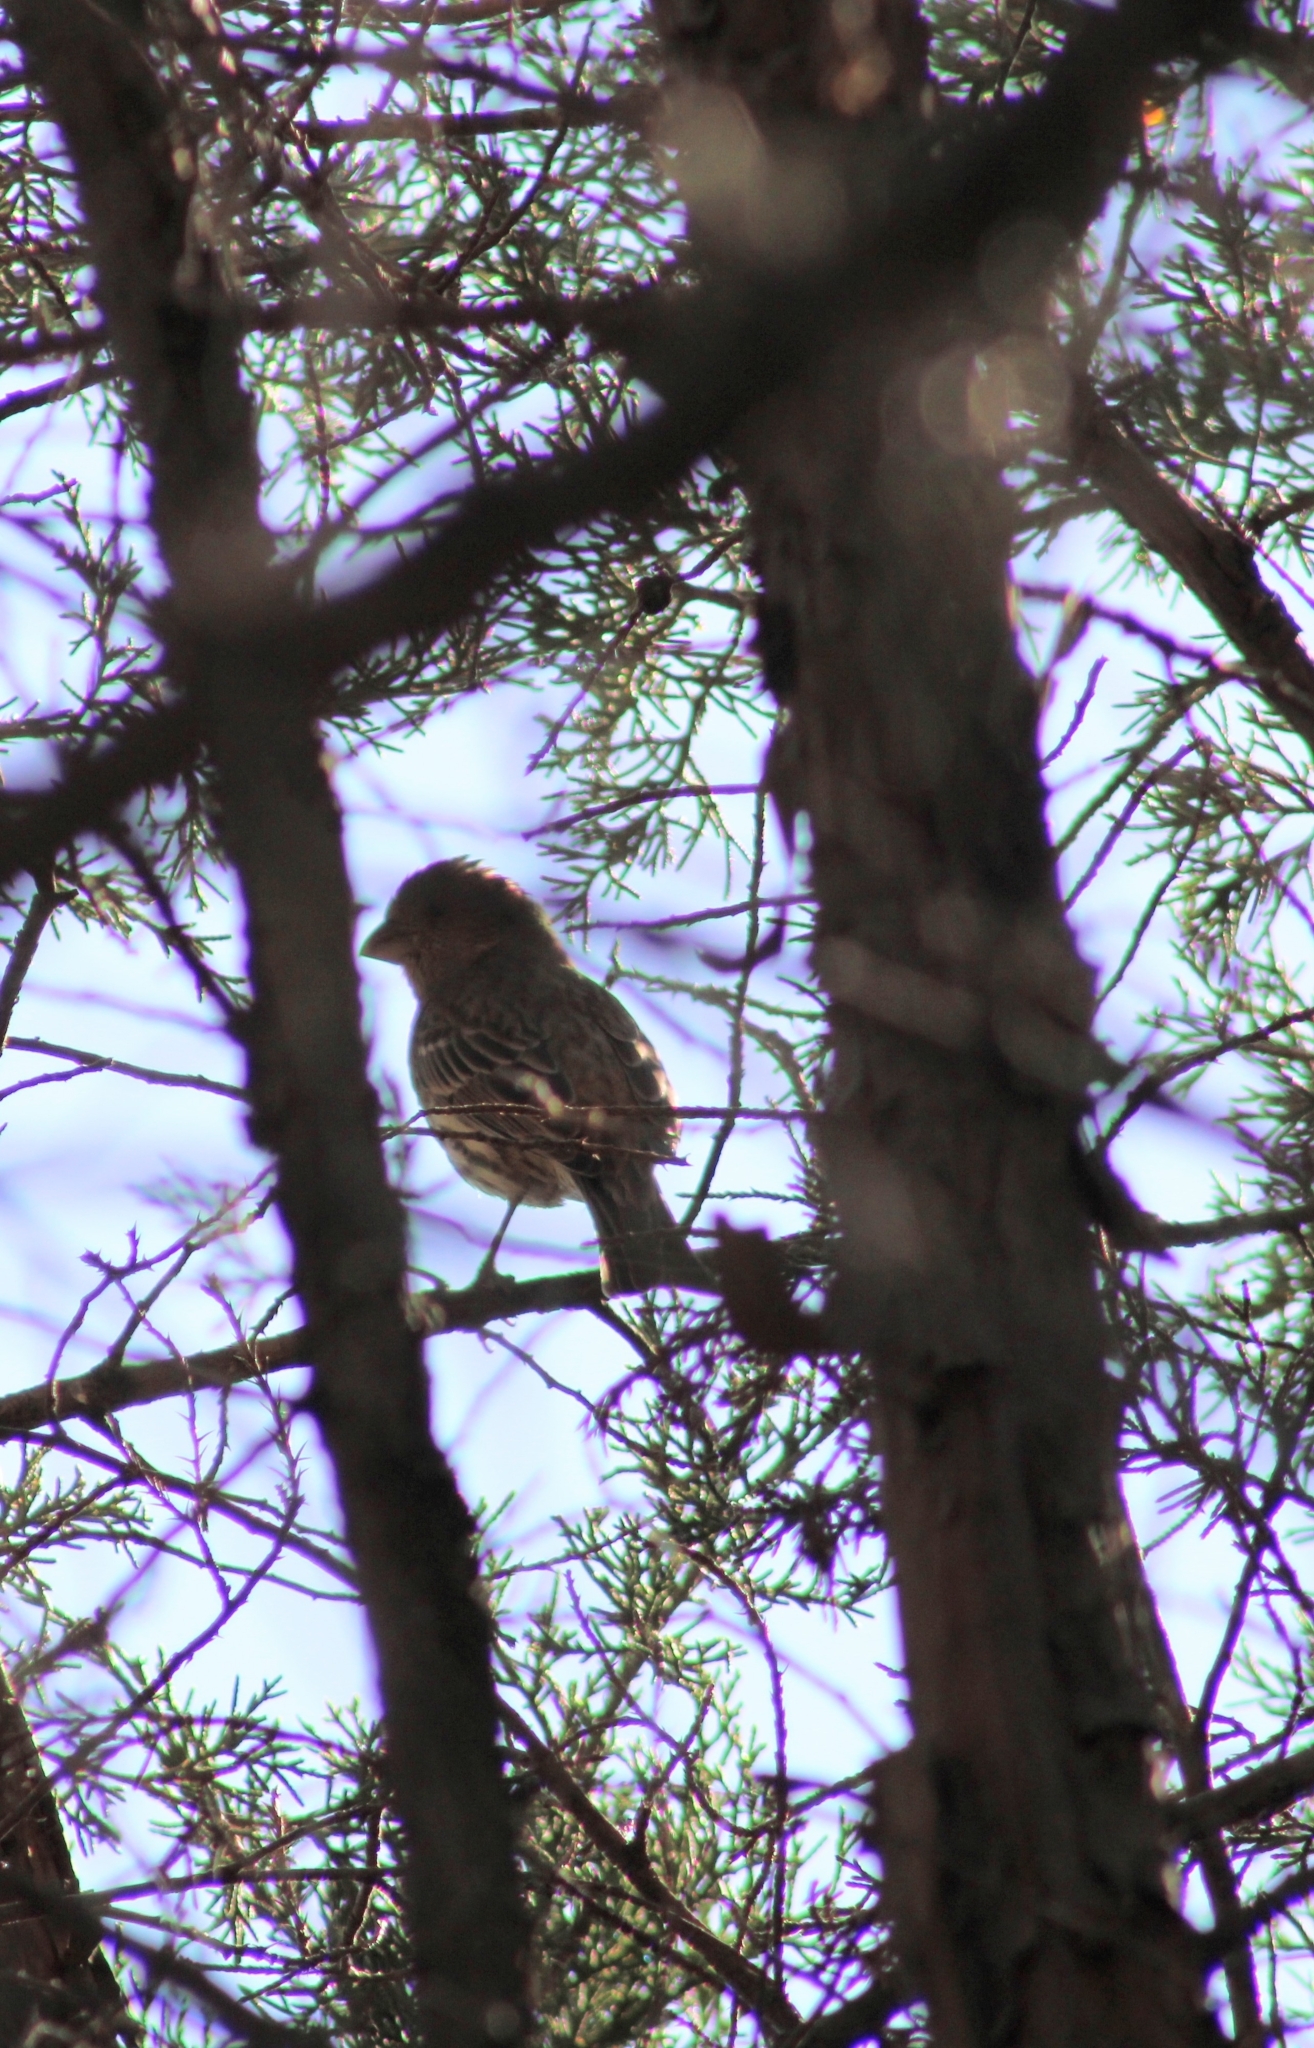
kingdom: Animalia
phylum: Chordata
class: Aves
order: Passeriformes
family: Fringillidae
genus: Haemorhous
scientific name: Haemorhous mexicanus
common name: House finch
